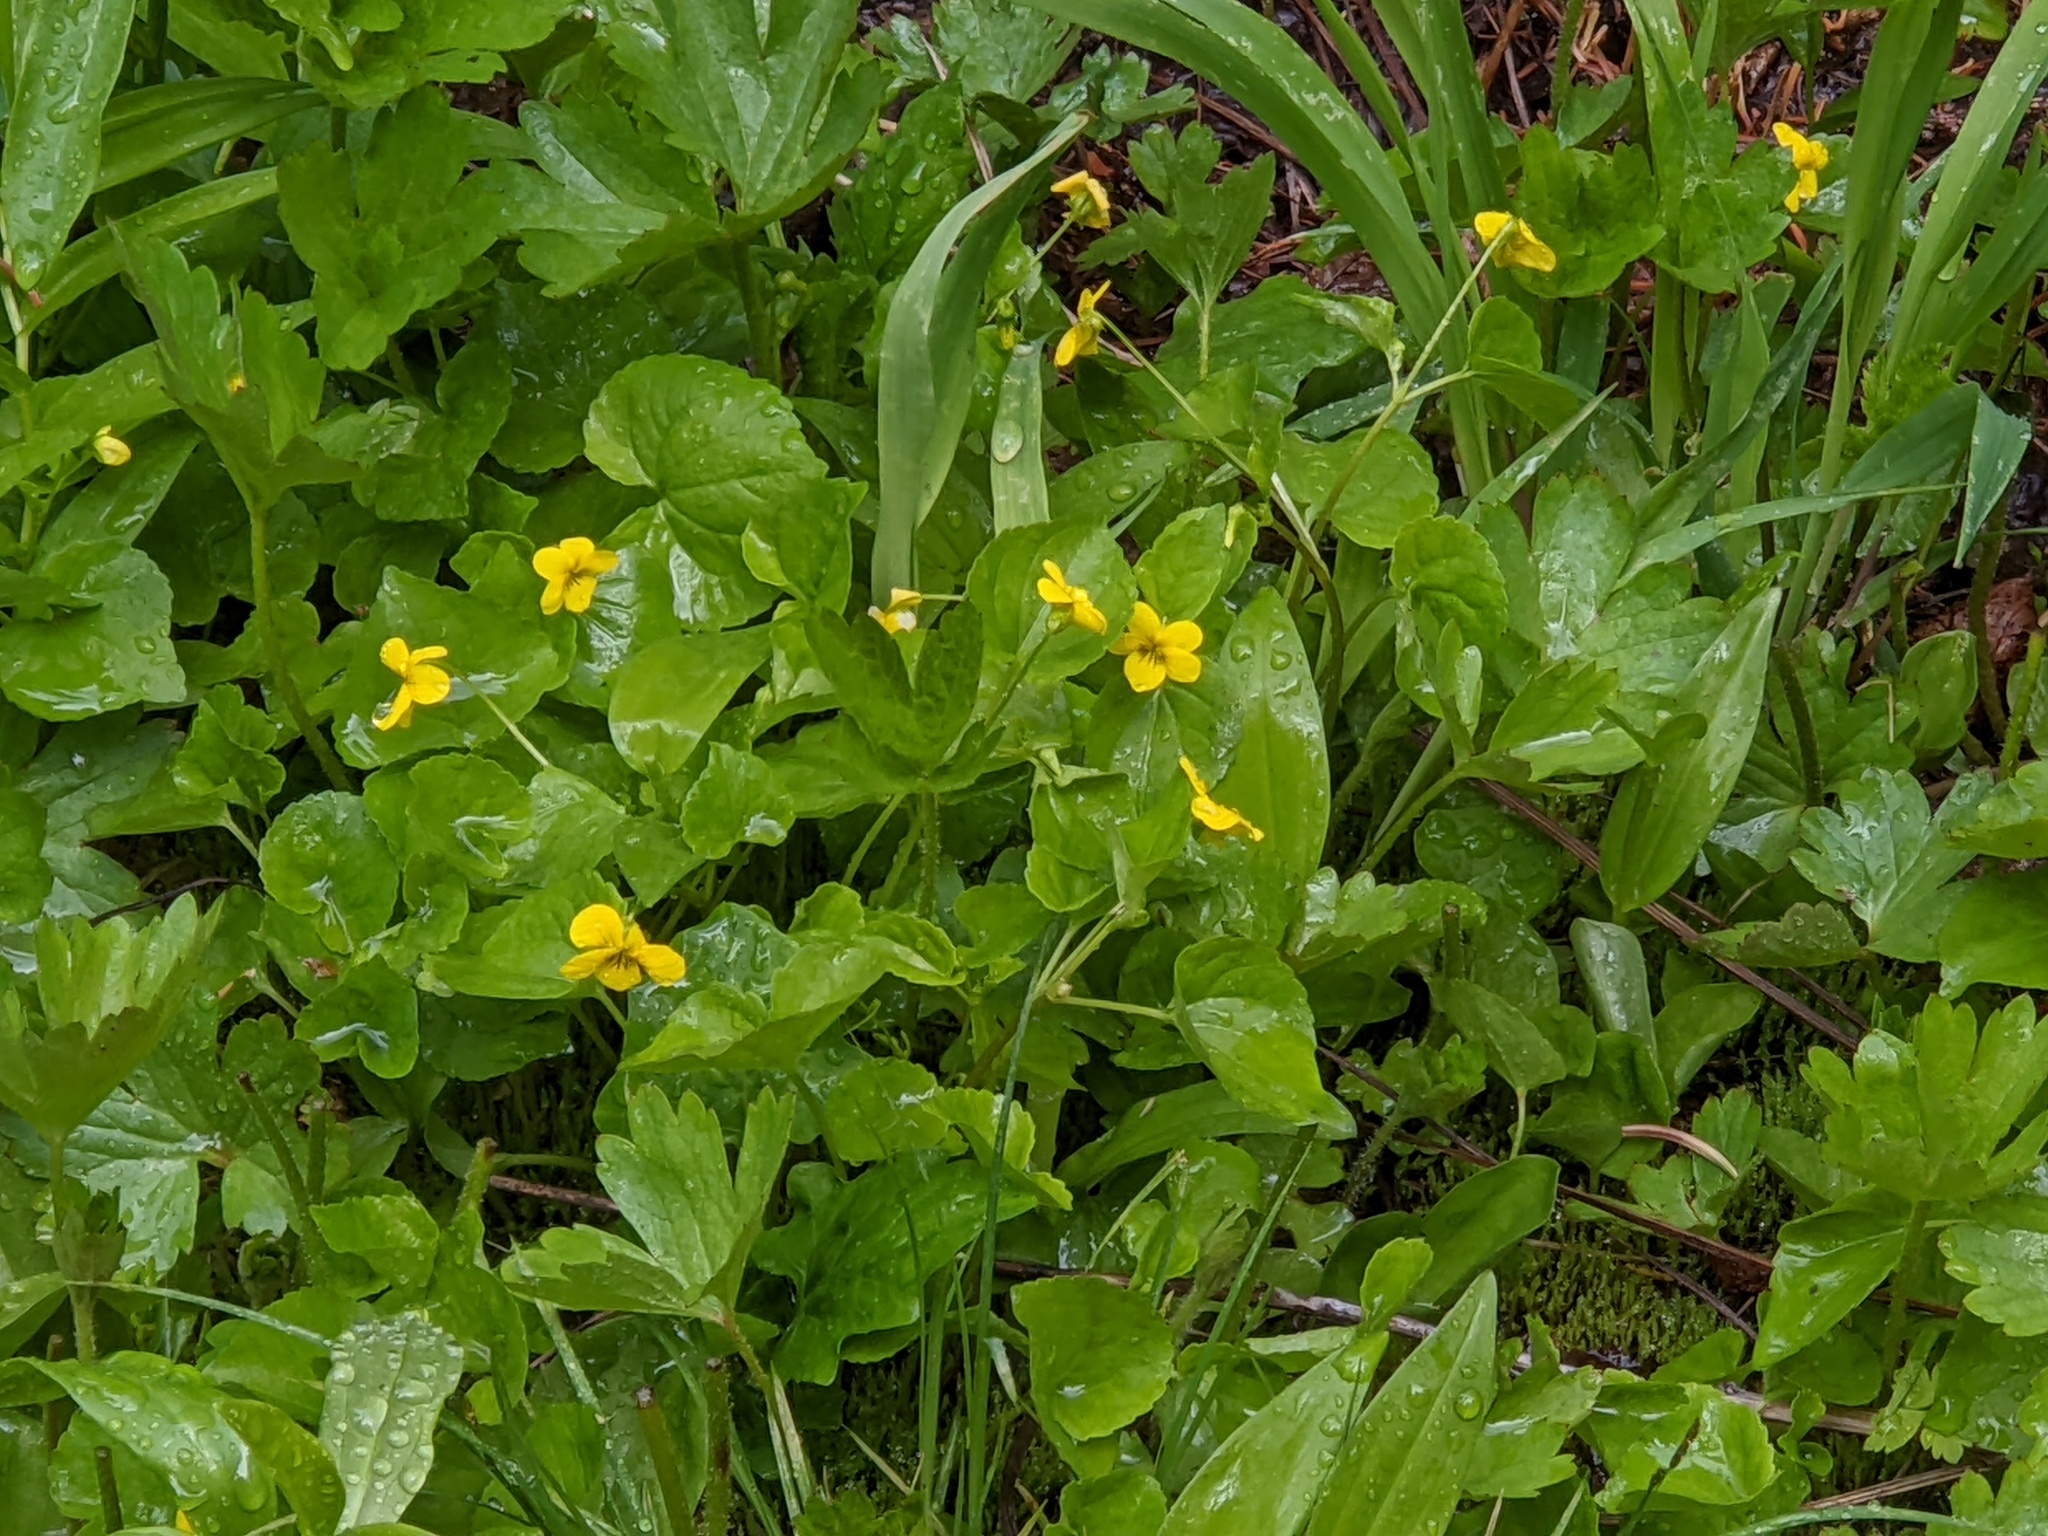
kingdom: Plantae
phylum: Tracheophyta
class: Magnoliopsida
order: Malpighiales
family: Violaceae
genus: Viola
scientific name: Viola glabella
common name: Stream violet
